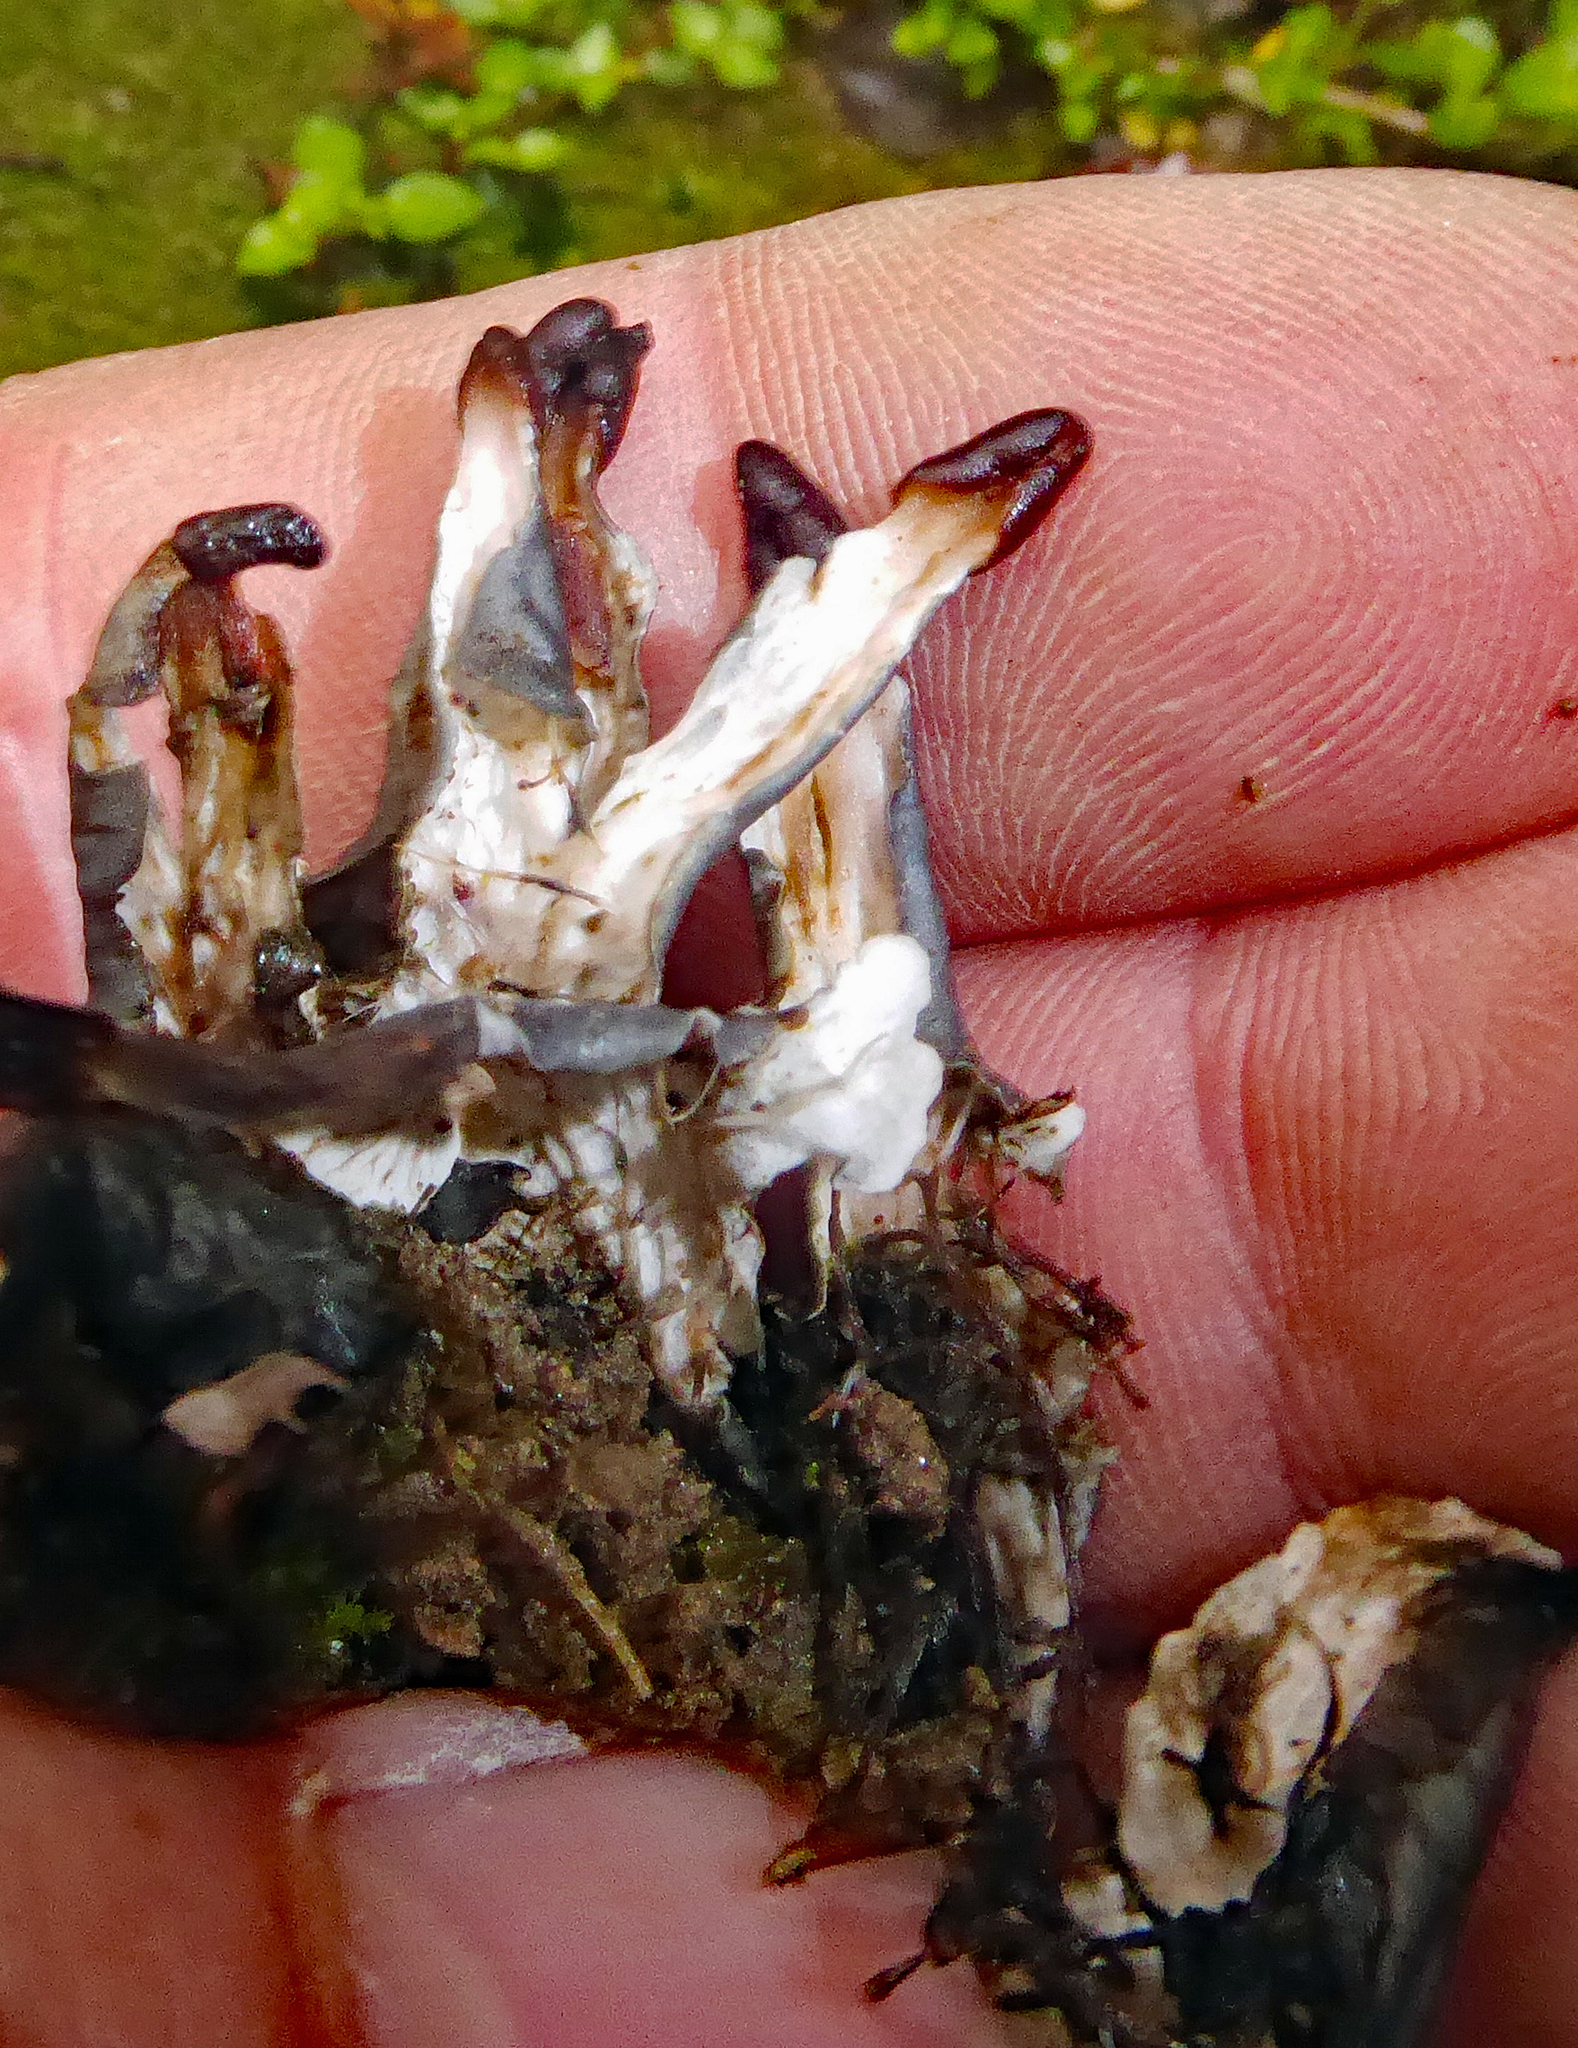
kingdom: Fungi
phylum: Ascomycota
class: Lecanoromycetes
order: Peltigerales
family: Peltigeraceae
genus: Peltigera
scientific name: Peltigera nana
